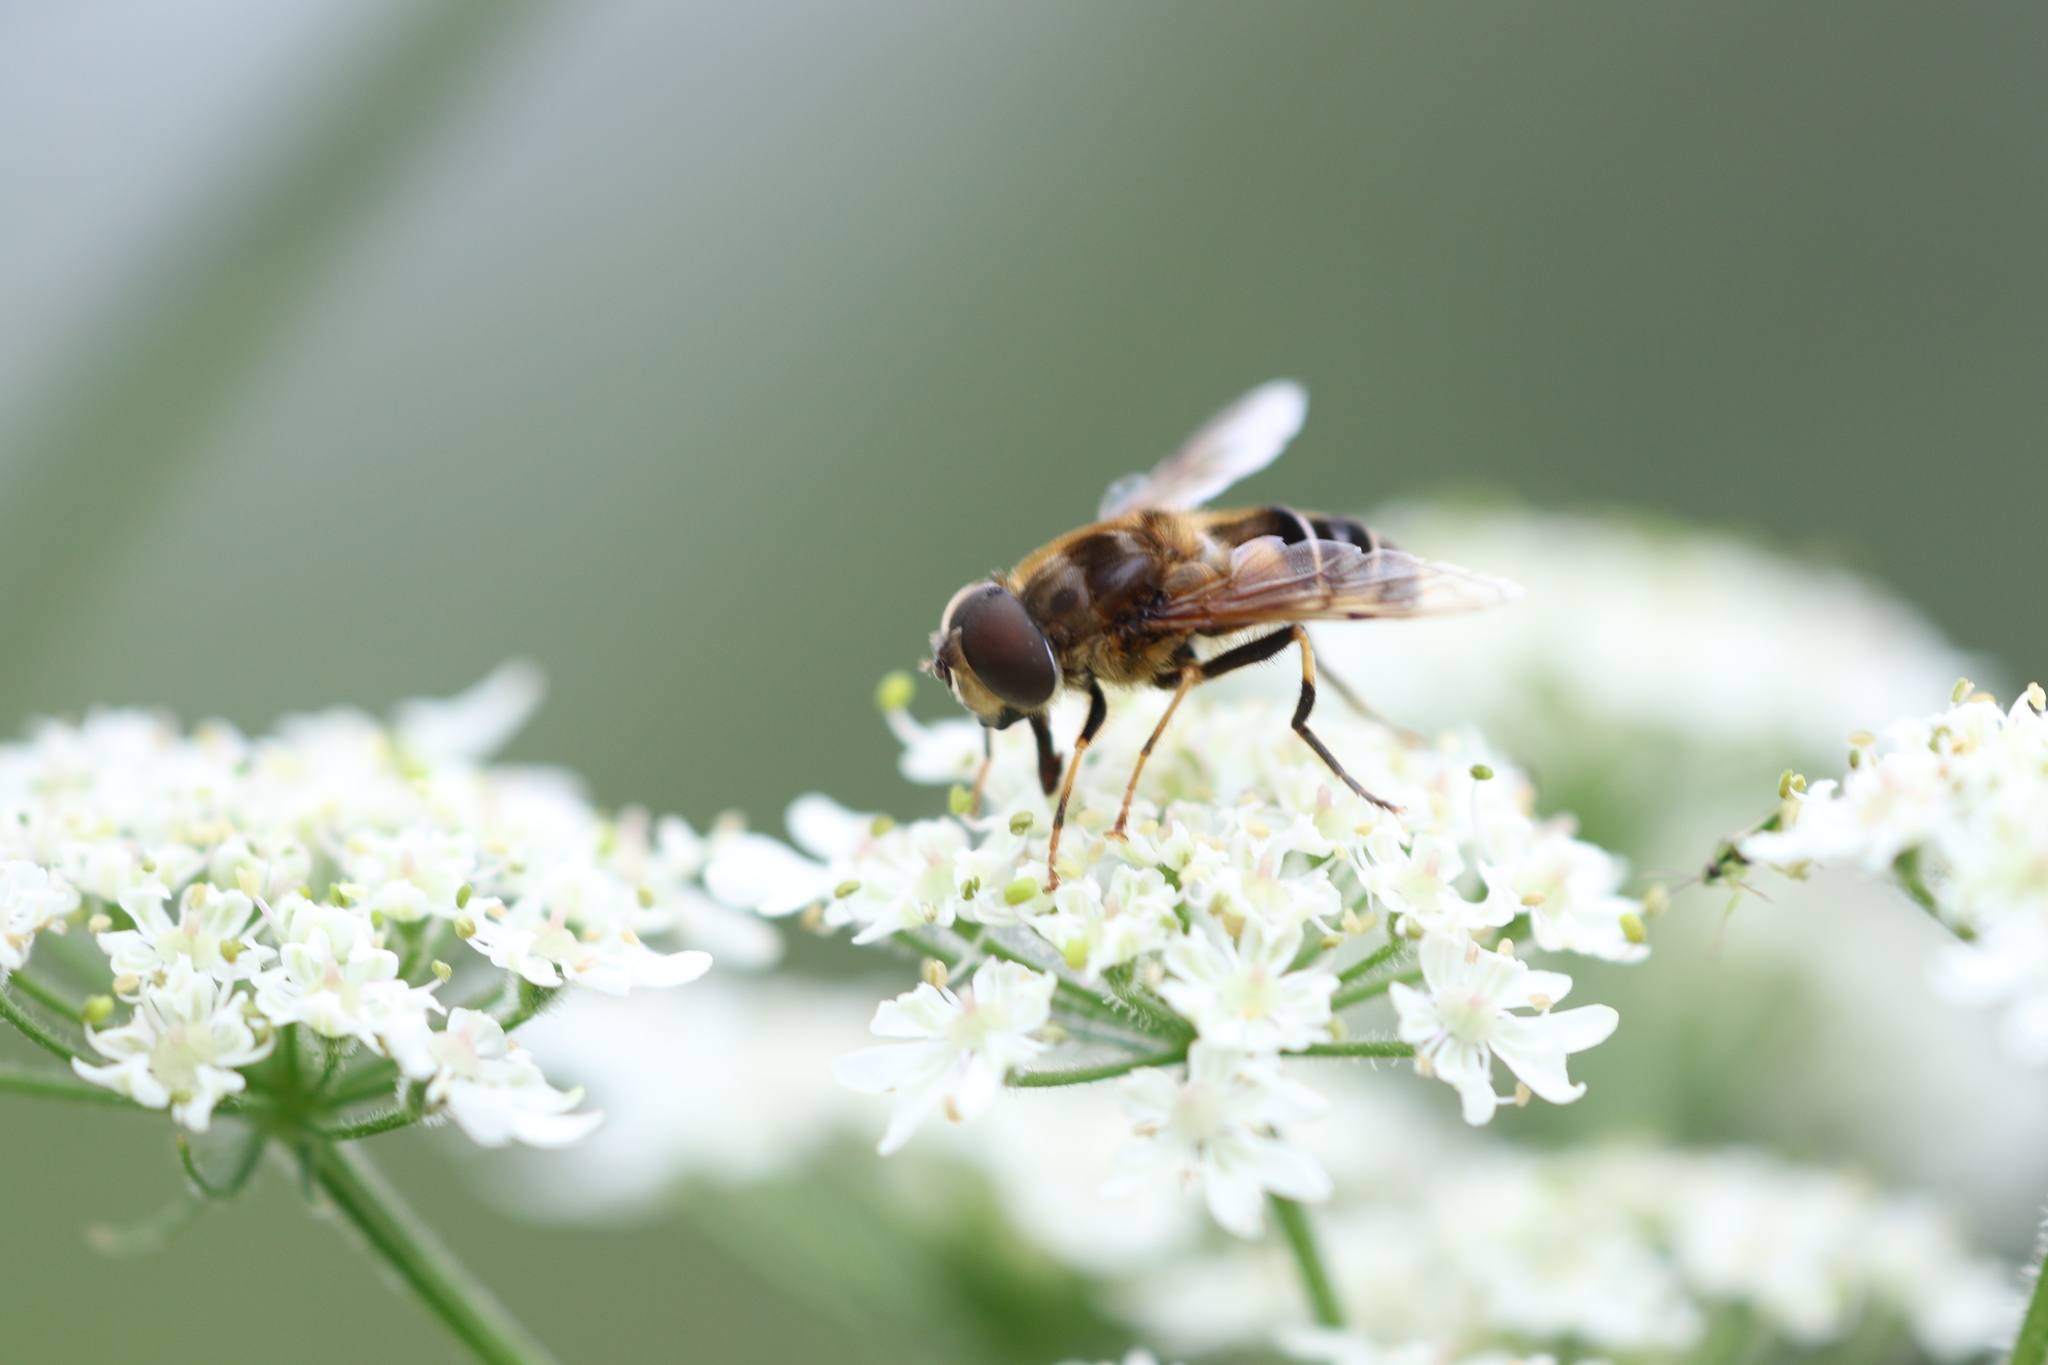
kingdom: Animalia
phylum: Arthropoda
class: Insecta
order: Diptera
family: Syrphidae
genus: Eristalis
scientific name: Eristalis pertinax
